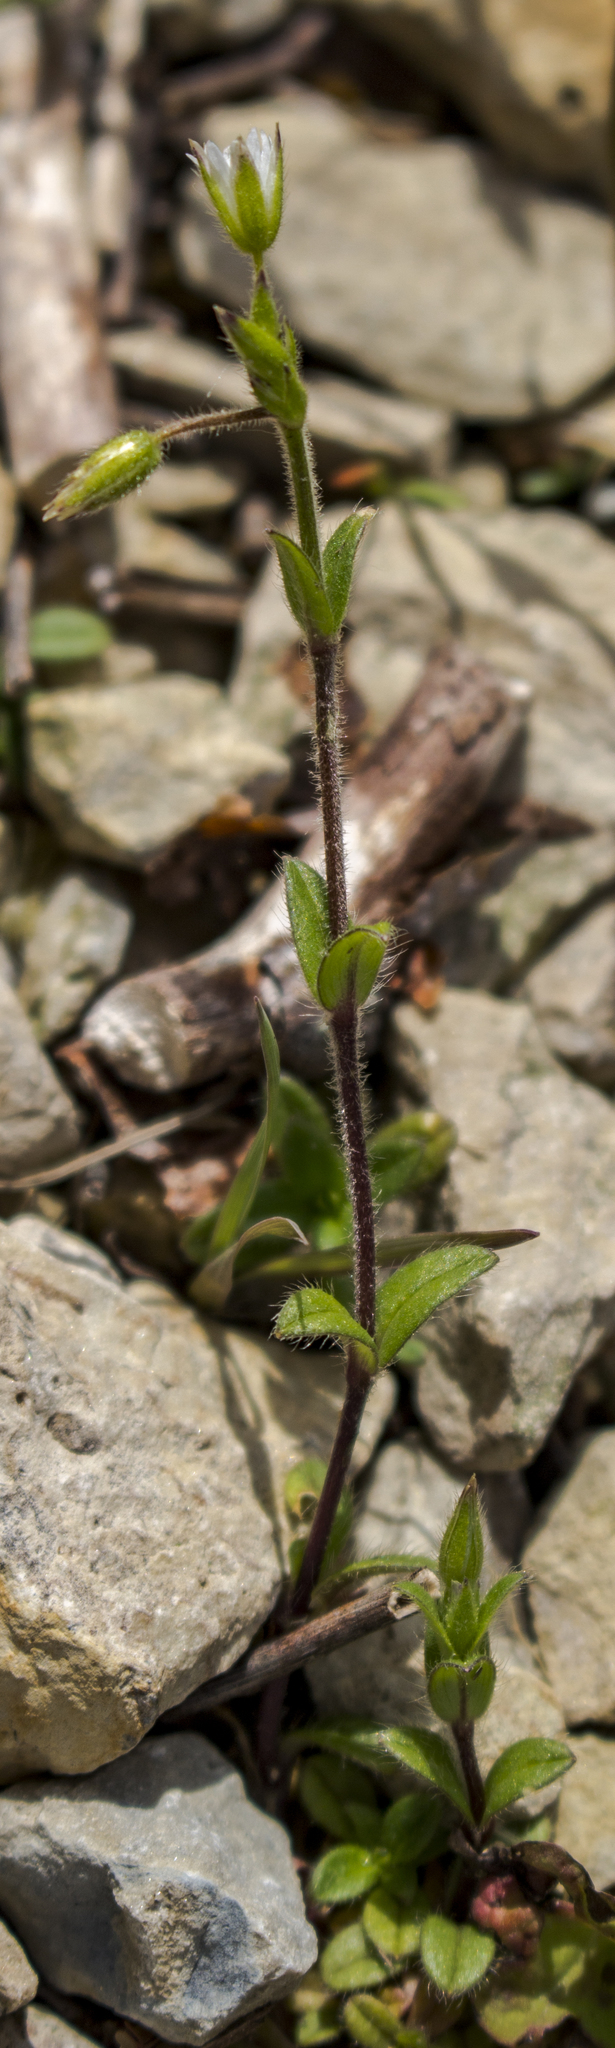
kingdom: Plantae
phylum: Tracheophyta
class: Magnoliopsida
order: Caryophyllales
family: Caryophyllaceae
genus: Cerastium
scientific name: Cerastium fontanum
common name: Common mouse-ear
